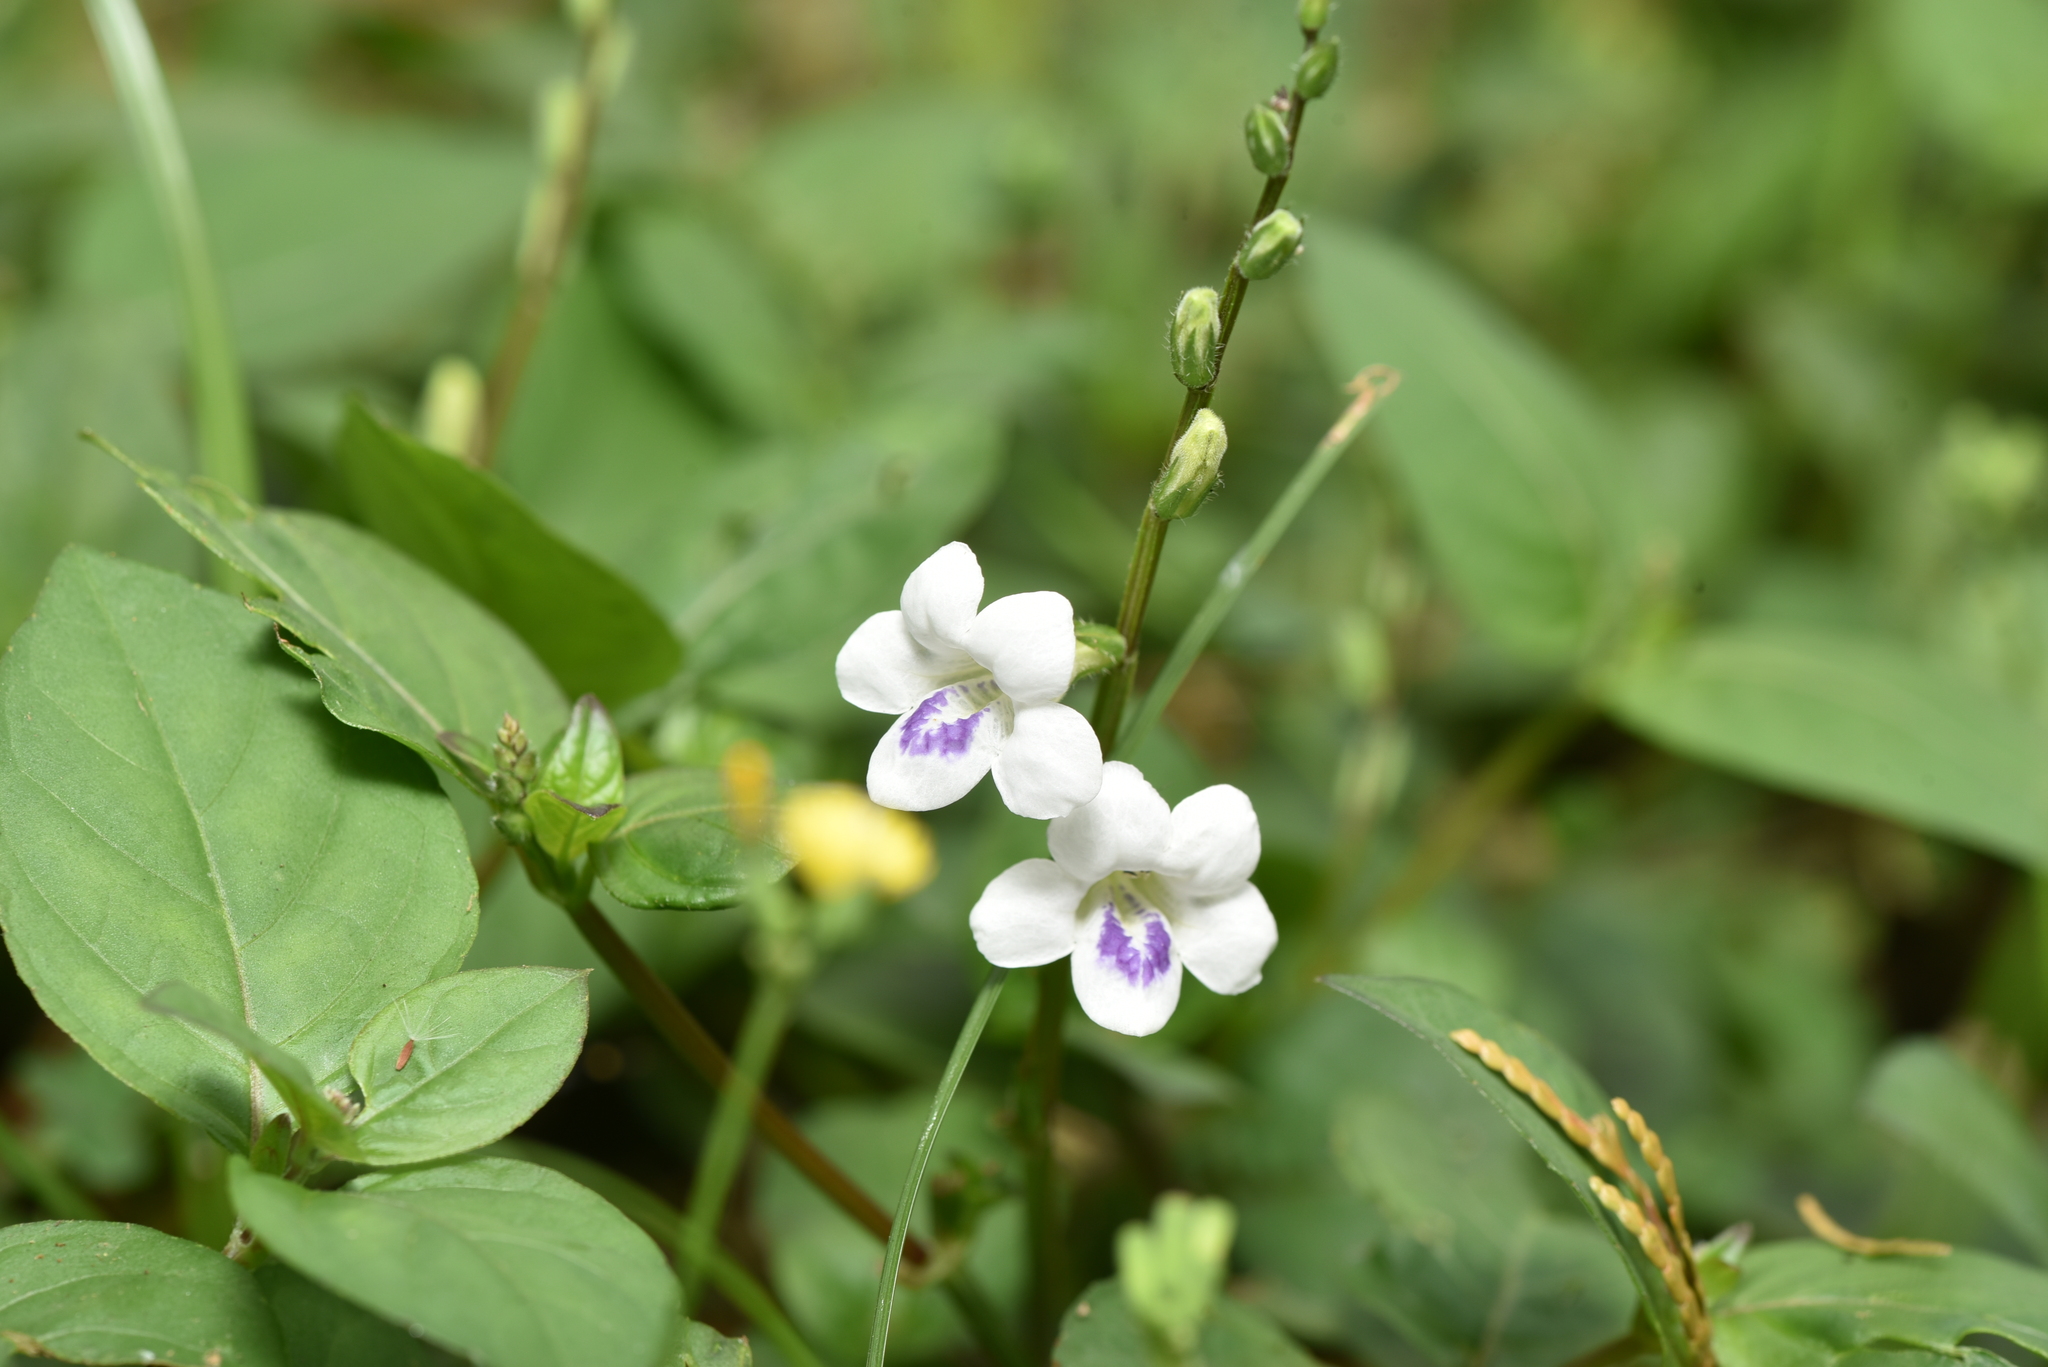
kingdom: Plantae
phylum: Tracheophyta
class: Magnoliopsida
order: Lamiales
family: Acanthaceae
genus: Asystasia
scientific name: Asystasia intrusa
